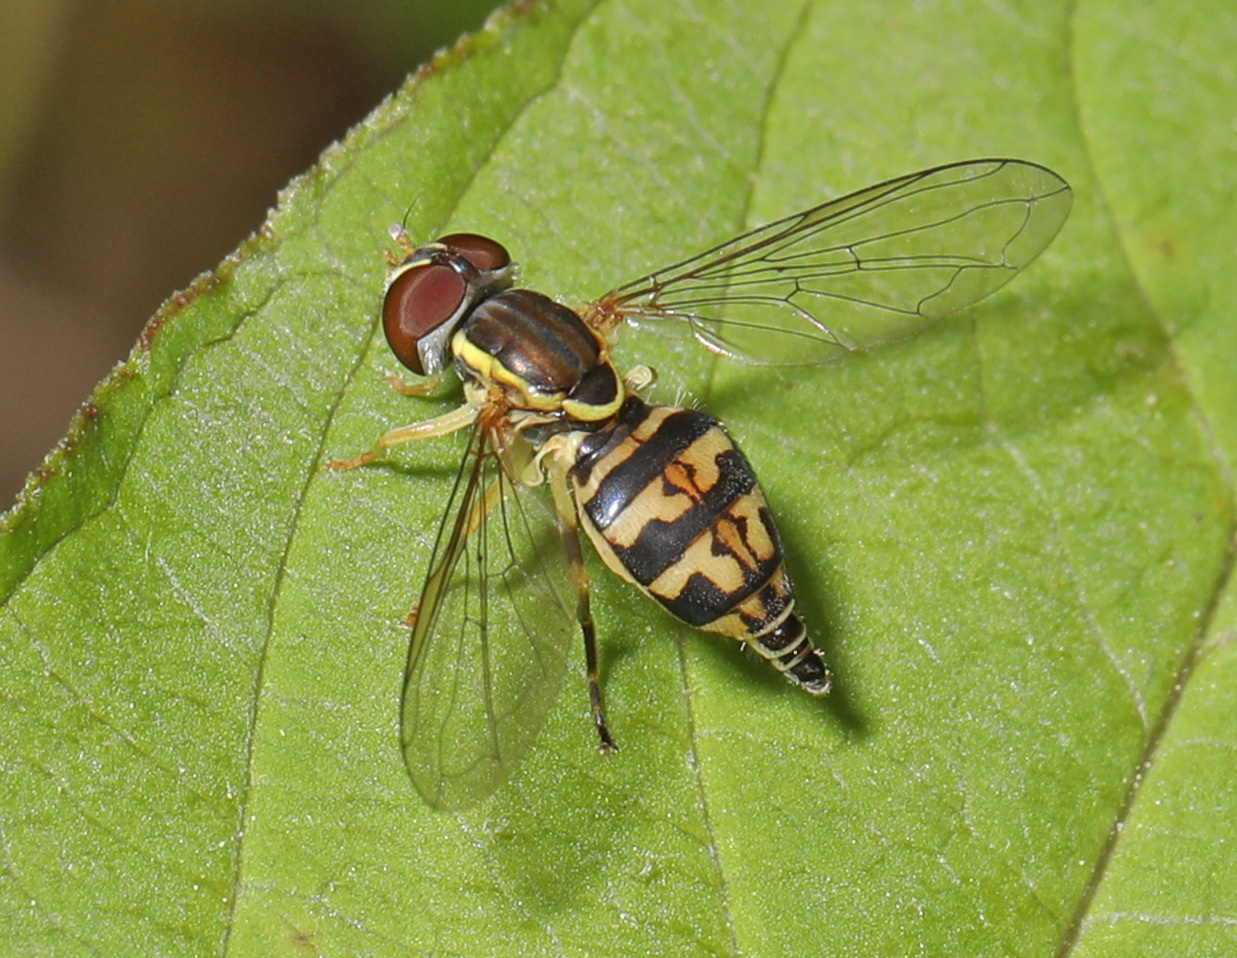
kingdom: Animalia
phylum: Arthropoda
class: Insecta
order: Diptera
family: Syrphidae
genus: Toxomerus
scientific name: Toxomerus geminatus
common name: Eastern calligrapher
